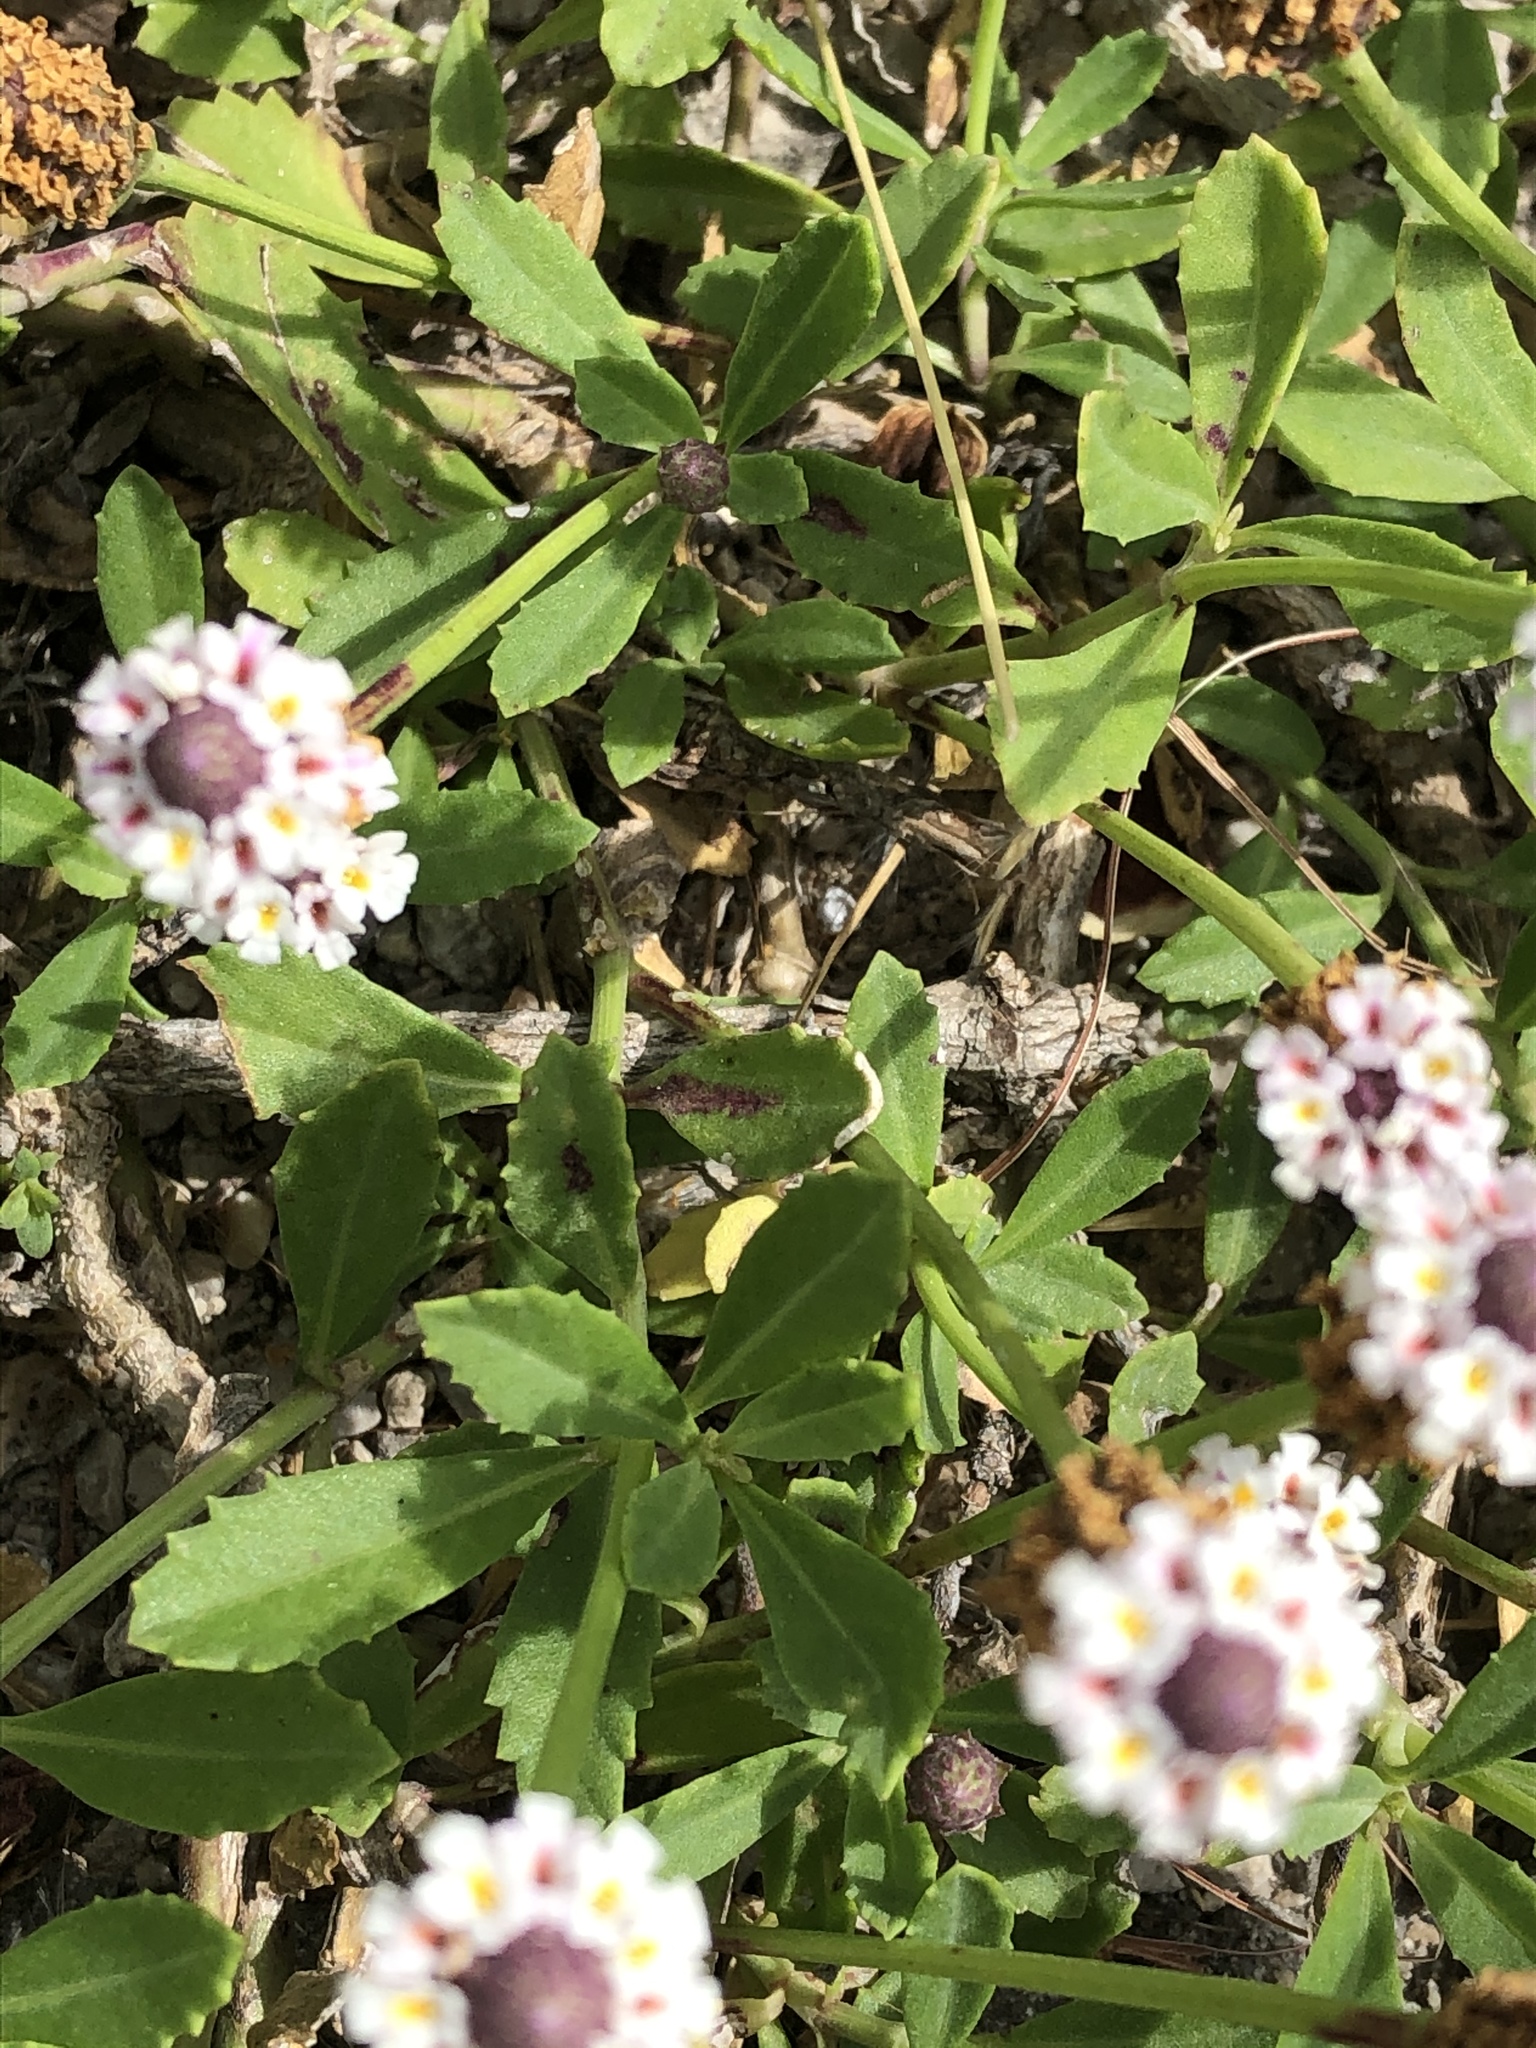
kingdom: Plantae
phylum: Tracheophyta
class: Magnoliopsida
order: Lamiales
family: Verbenaceae
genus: Phyla
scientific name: Phyla nodiflora
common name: Frogfruit
